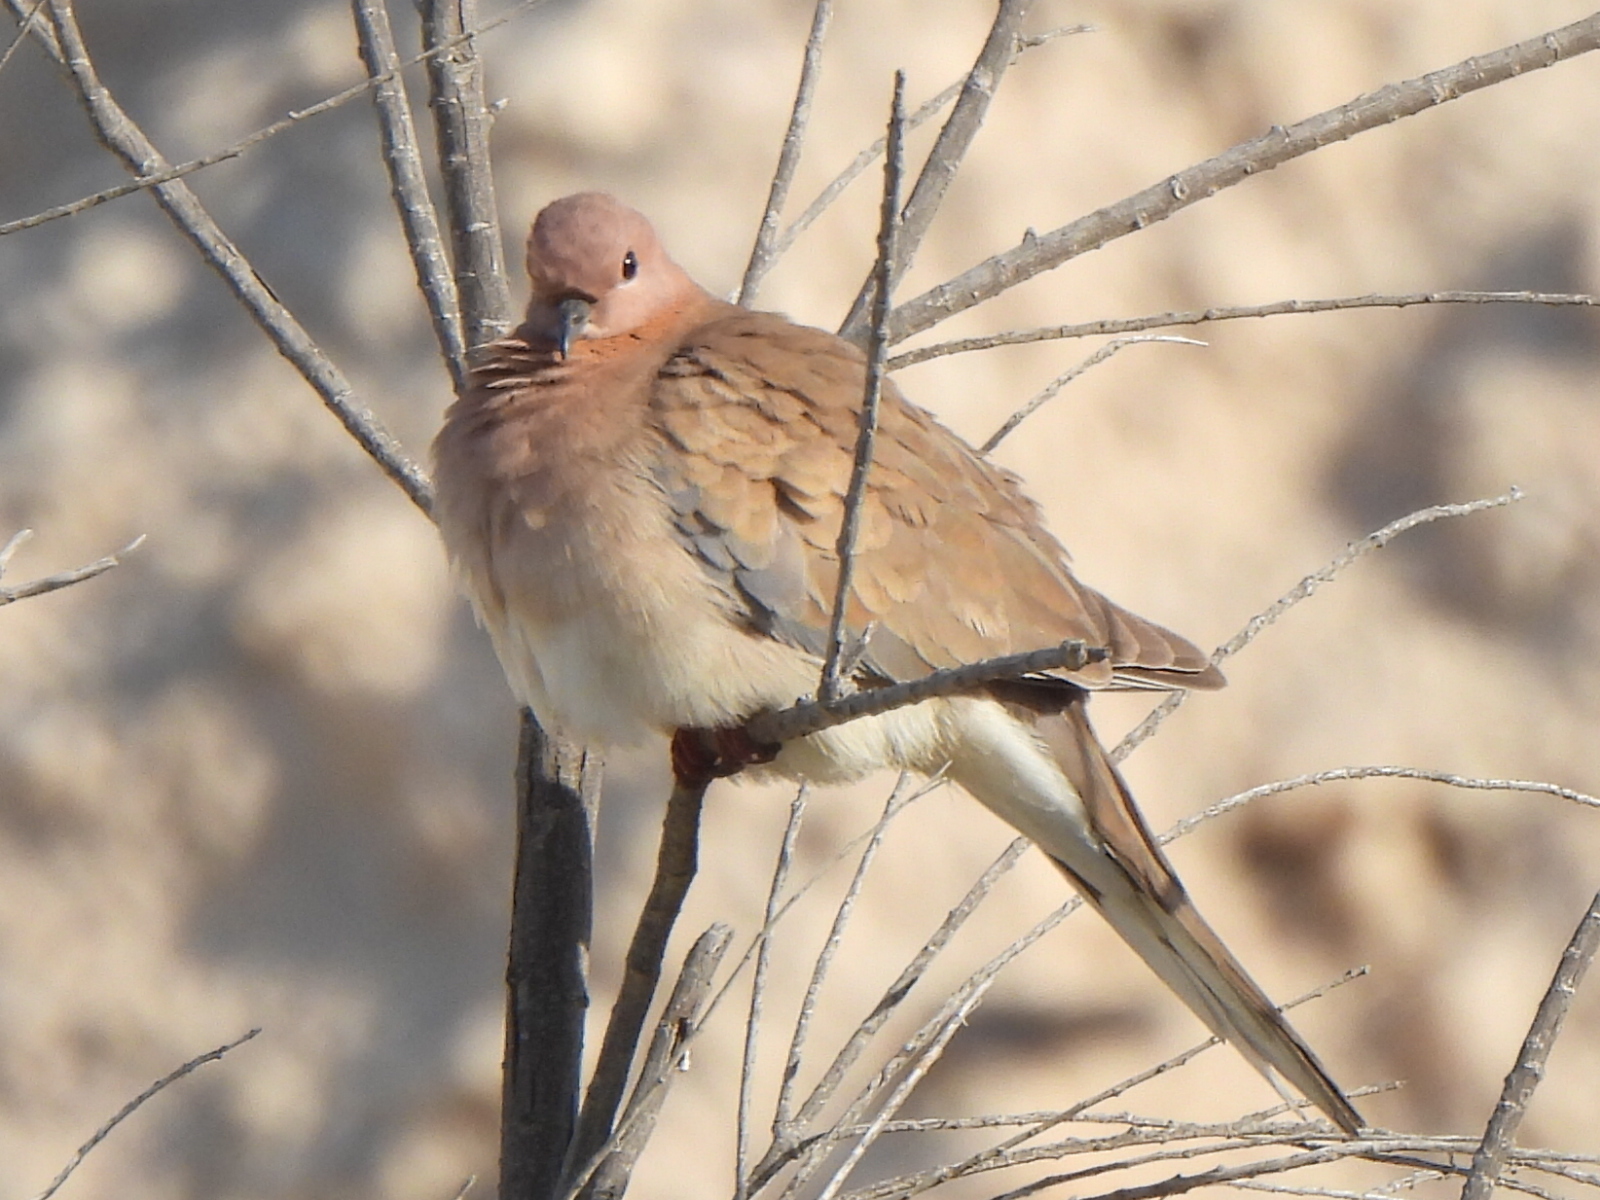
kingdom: Animalia
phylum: Chordata
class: Aves
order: Columbiformes
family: Columbidae
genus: Spilopelia
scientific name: Spilopelia senegalensis
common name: Laughing dove
